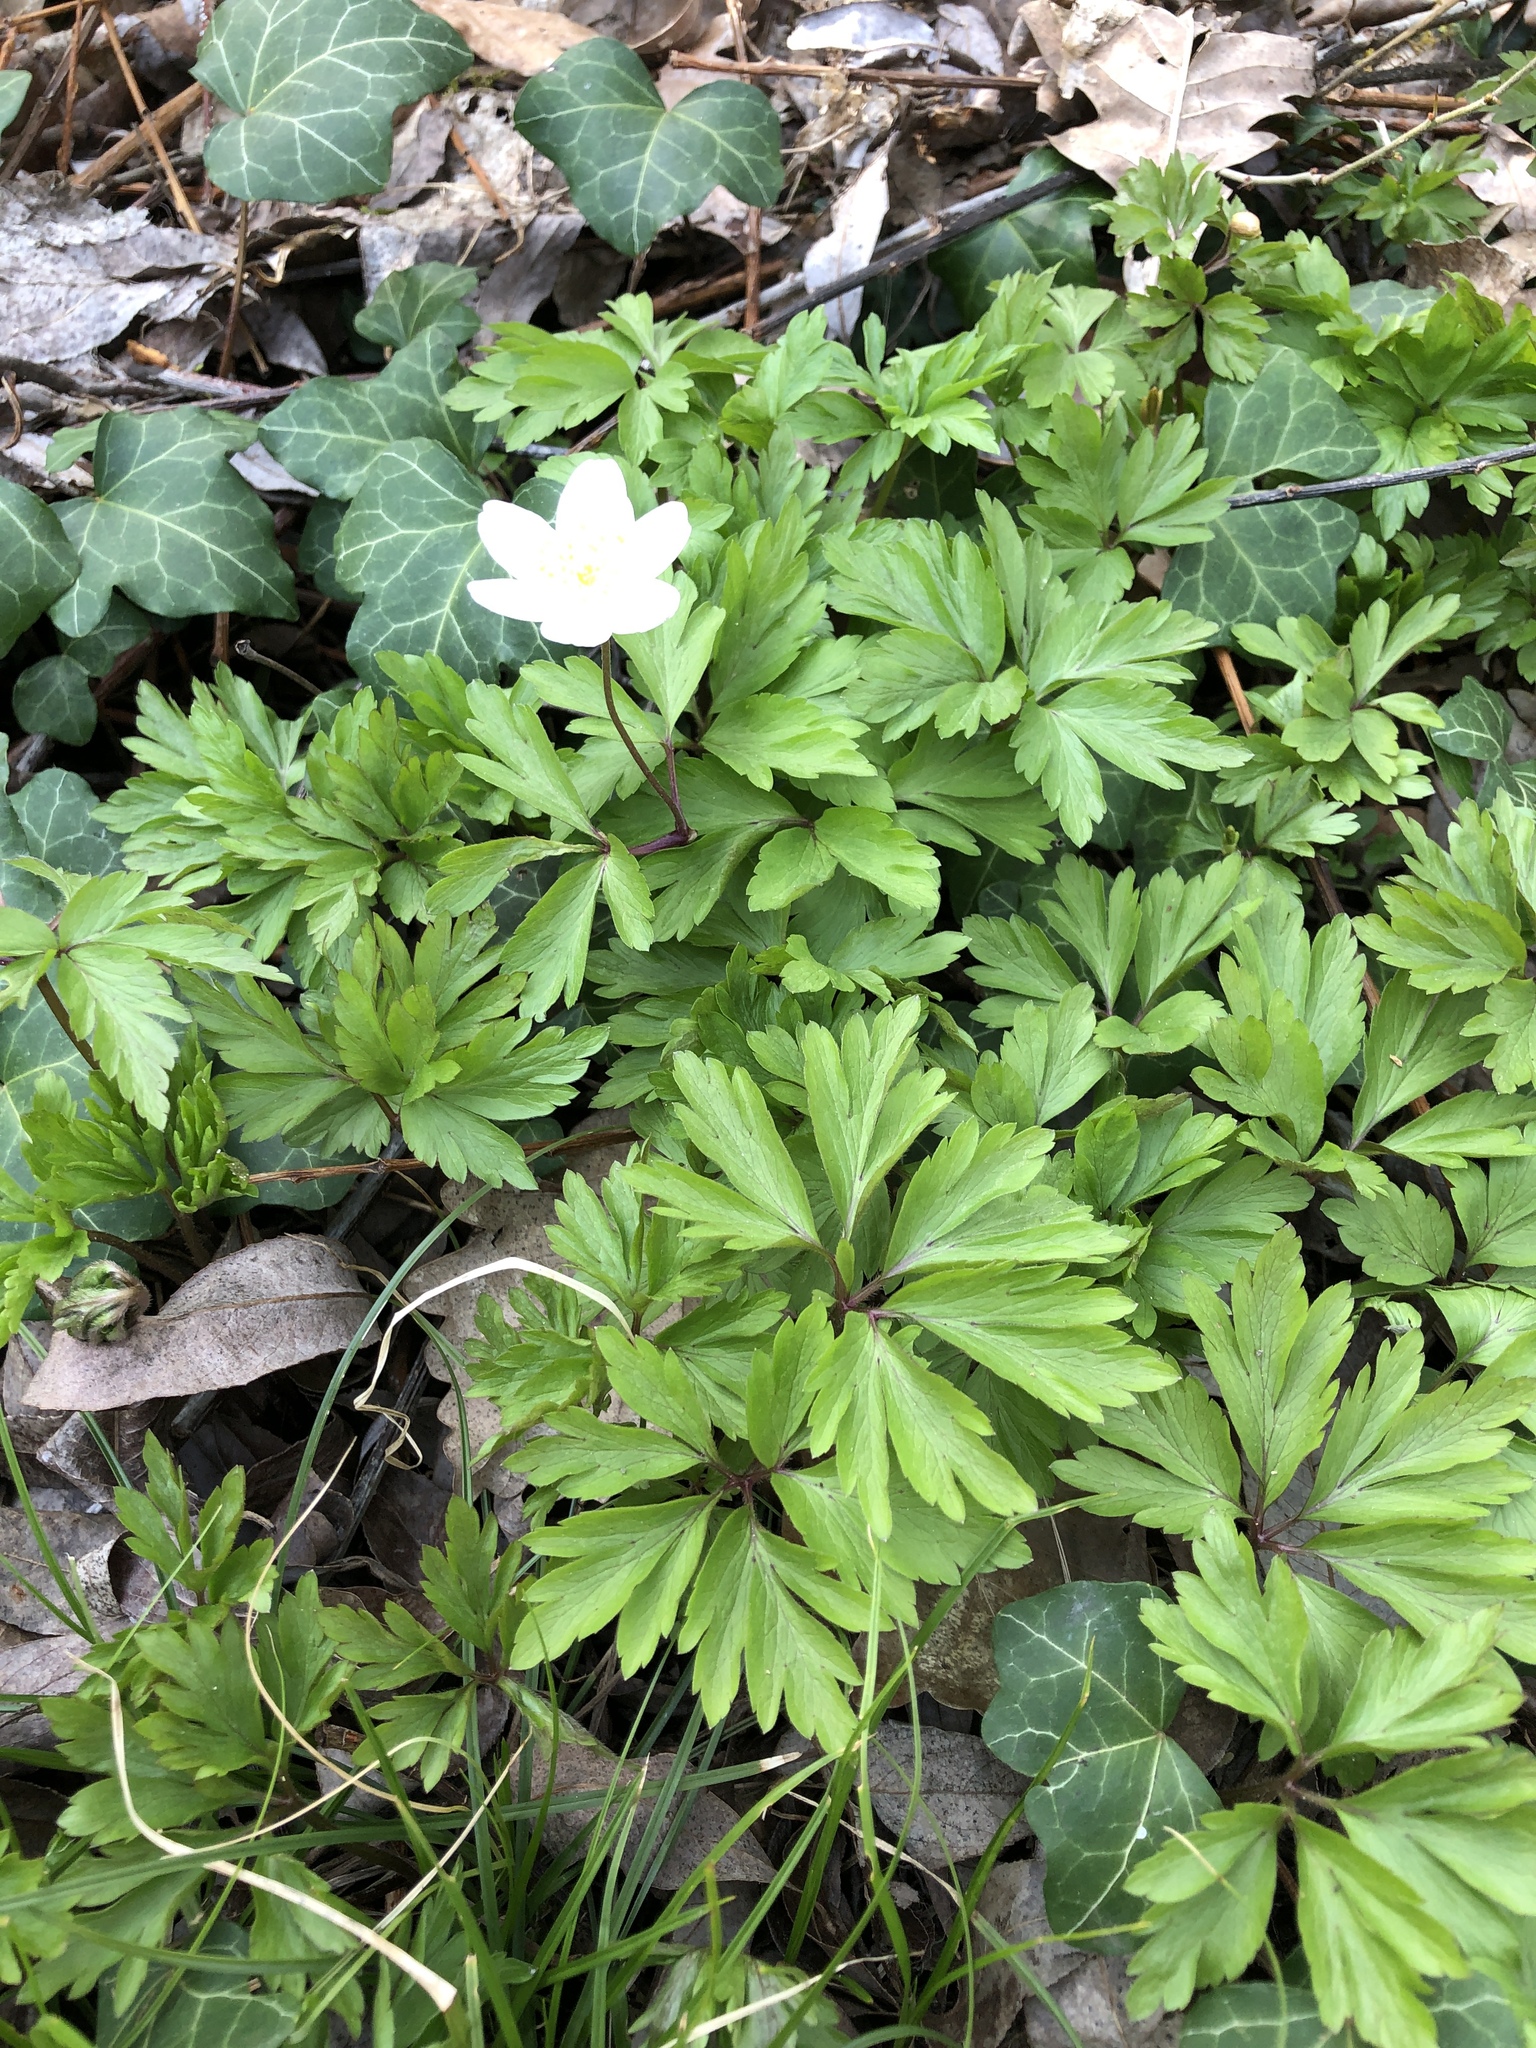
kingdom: Plantae
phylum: Tracheophyta
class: Magnoliopsida
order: Ranunculales
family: Ranunculaceae
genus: Anemone
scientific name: Anemone nemorosa
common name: Wood anemone
